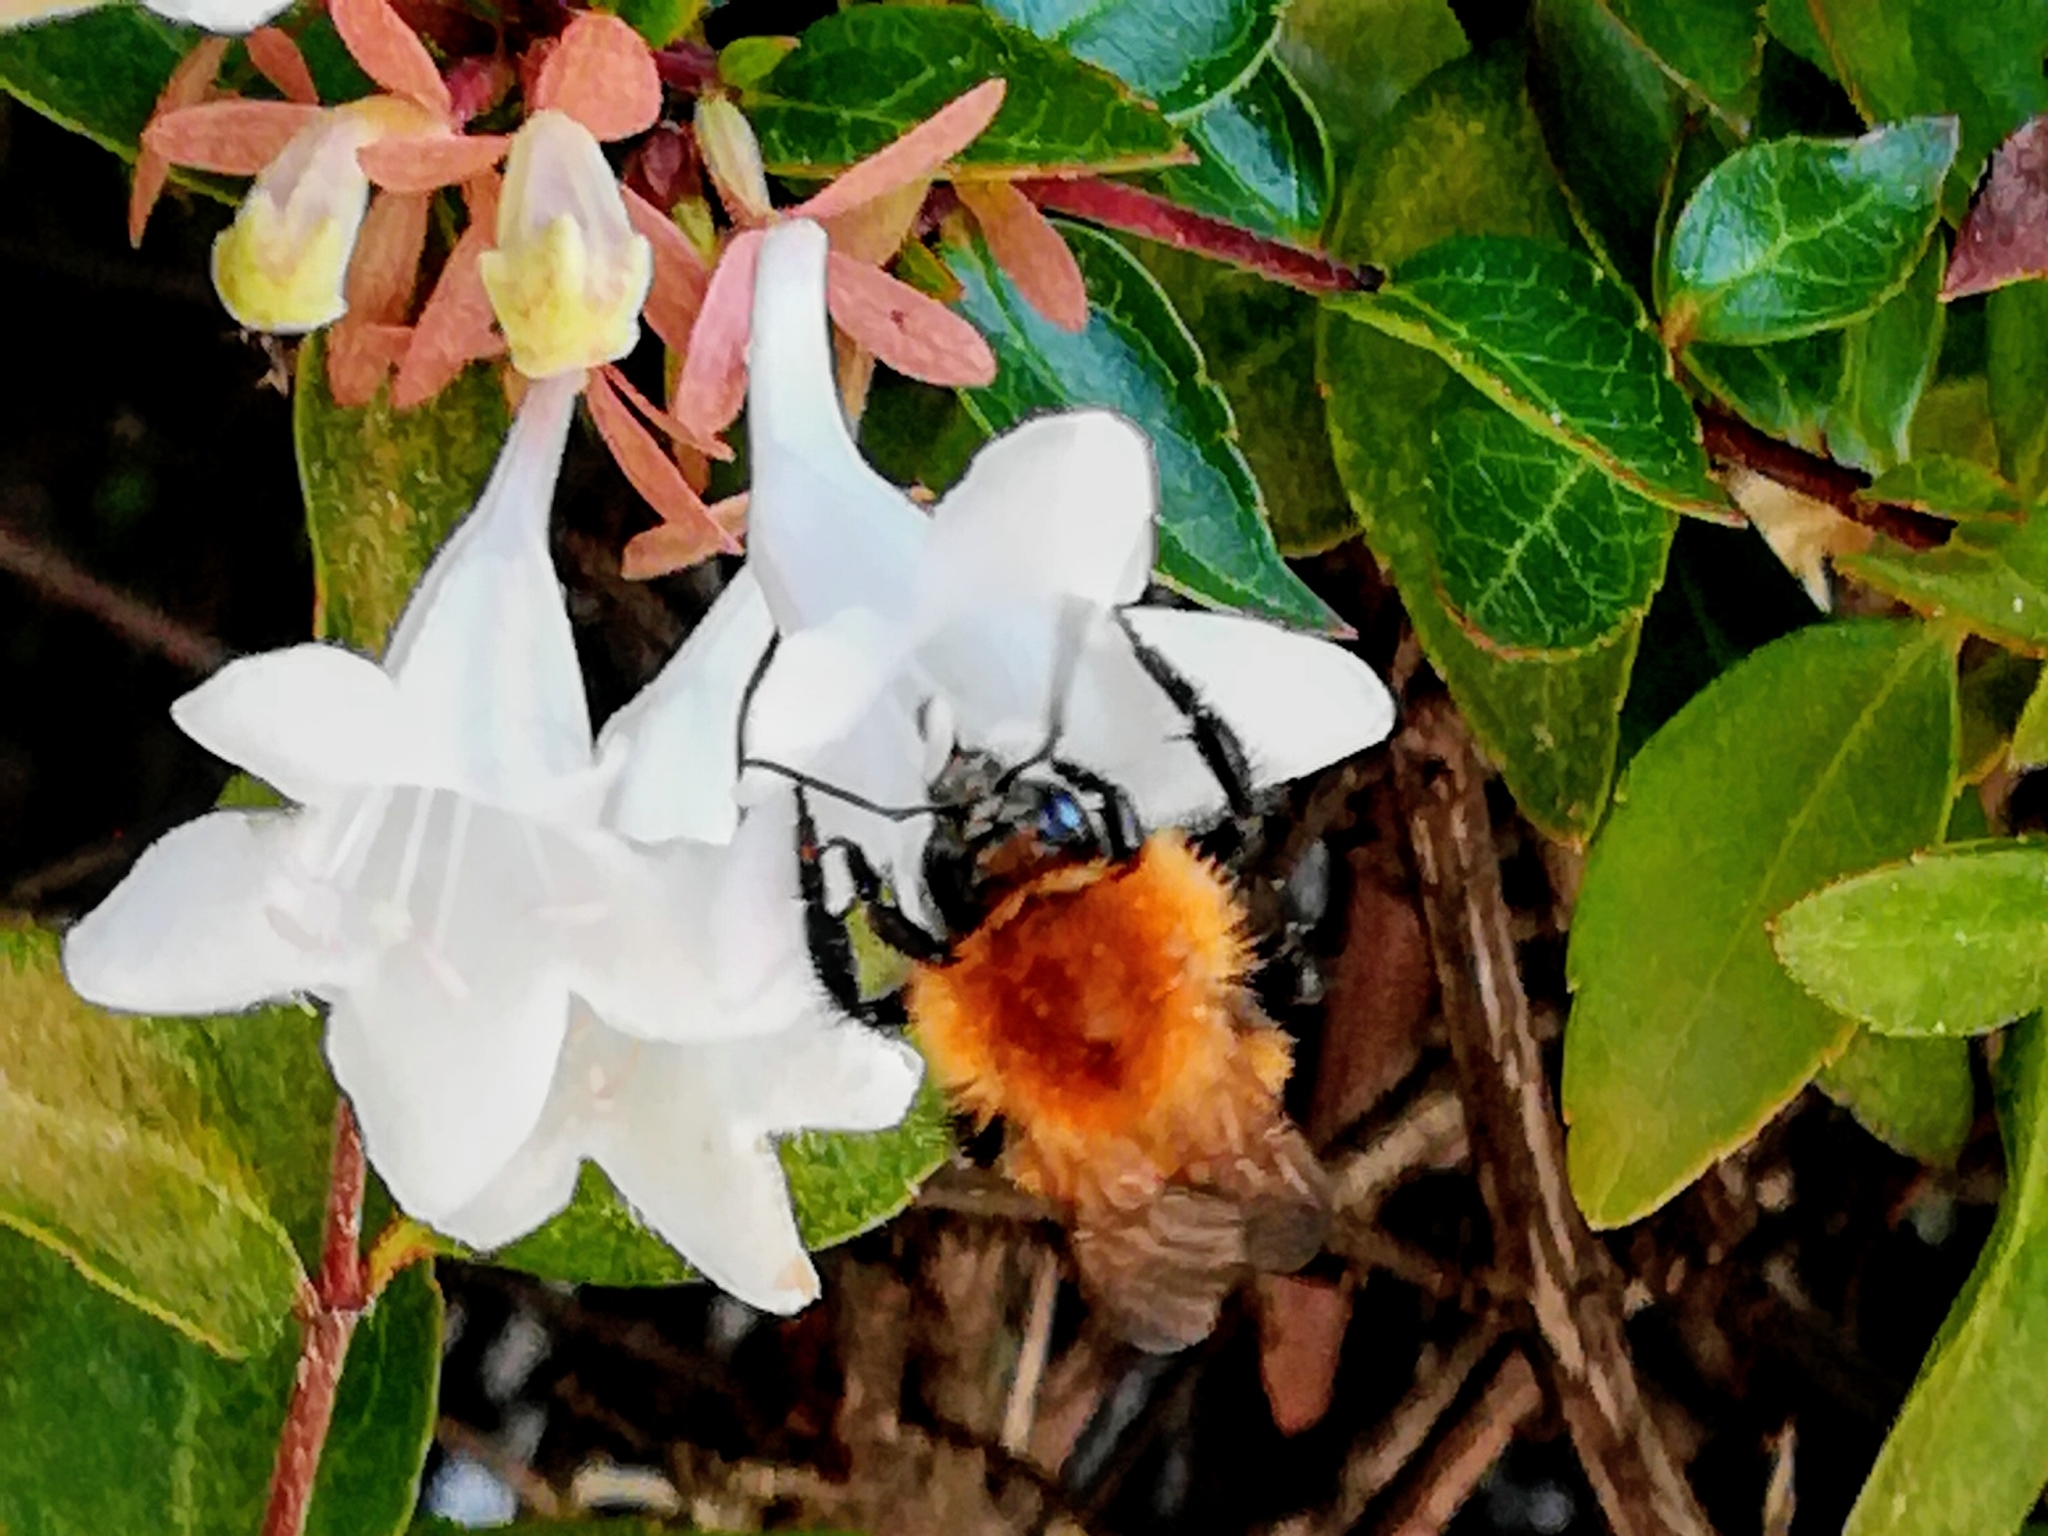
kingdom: Animalia
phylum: Arthropoda
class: Insecta
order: Hymenoptera
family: Apidae
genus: Bombus
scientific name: Bombus pascuorum
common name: Common carder bee
